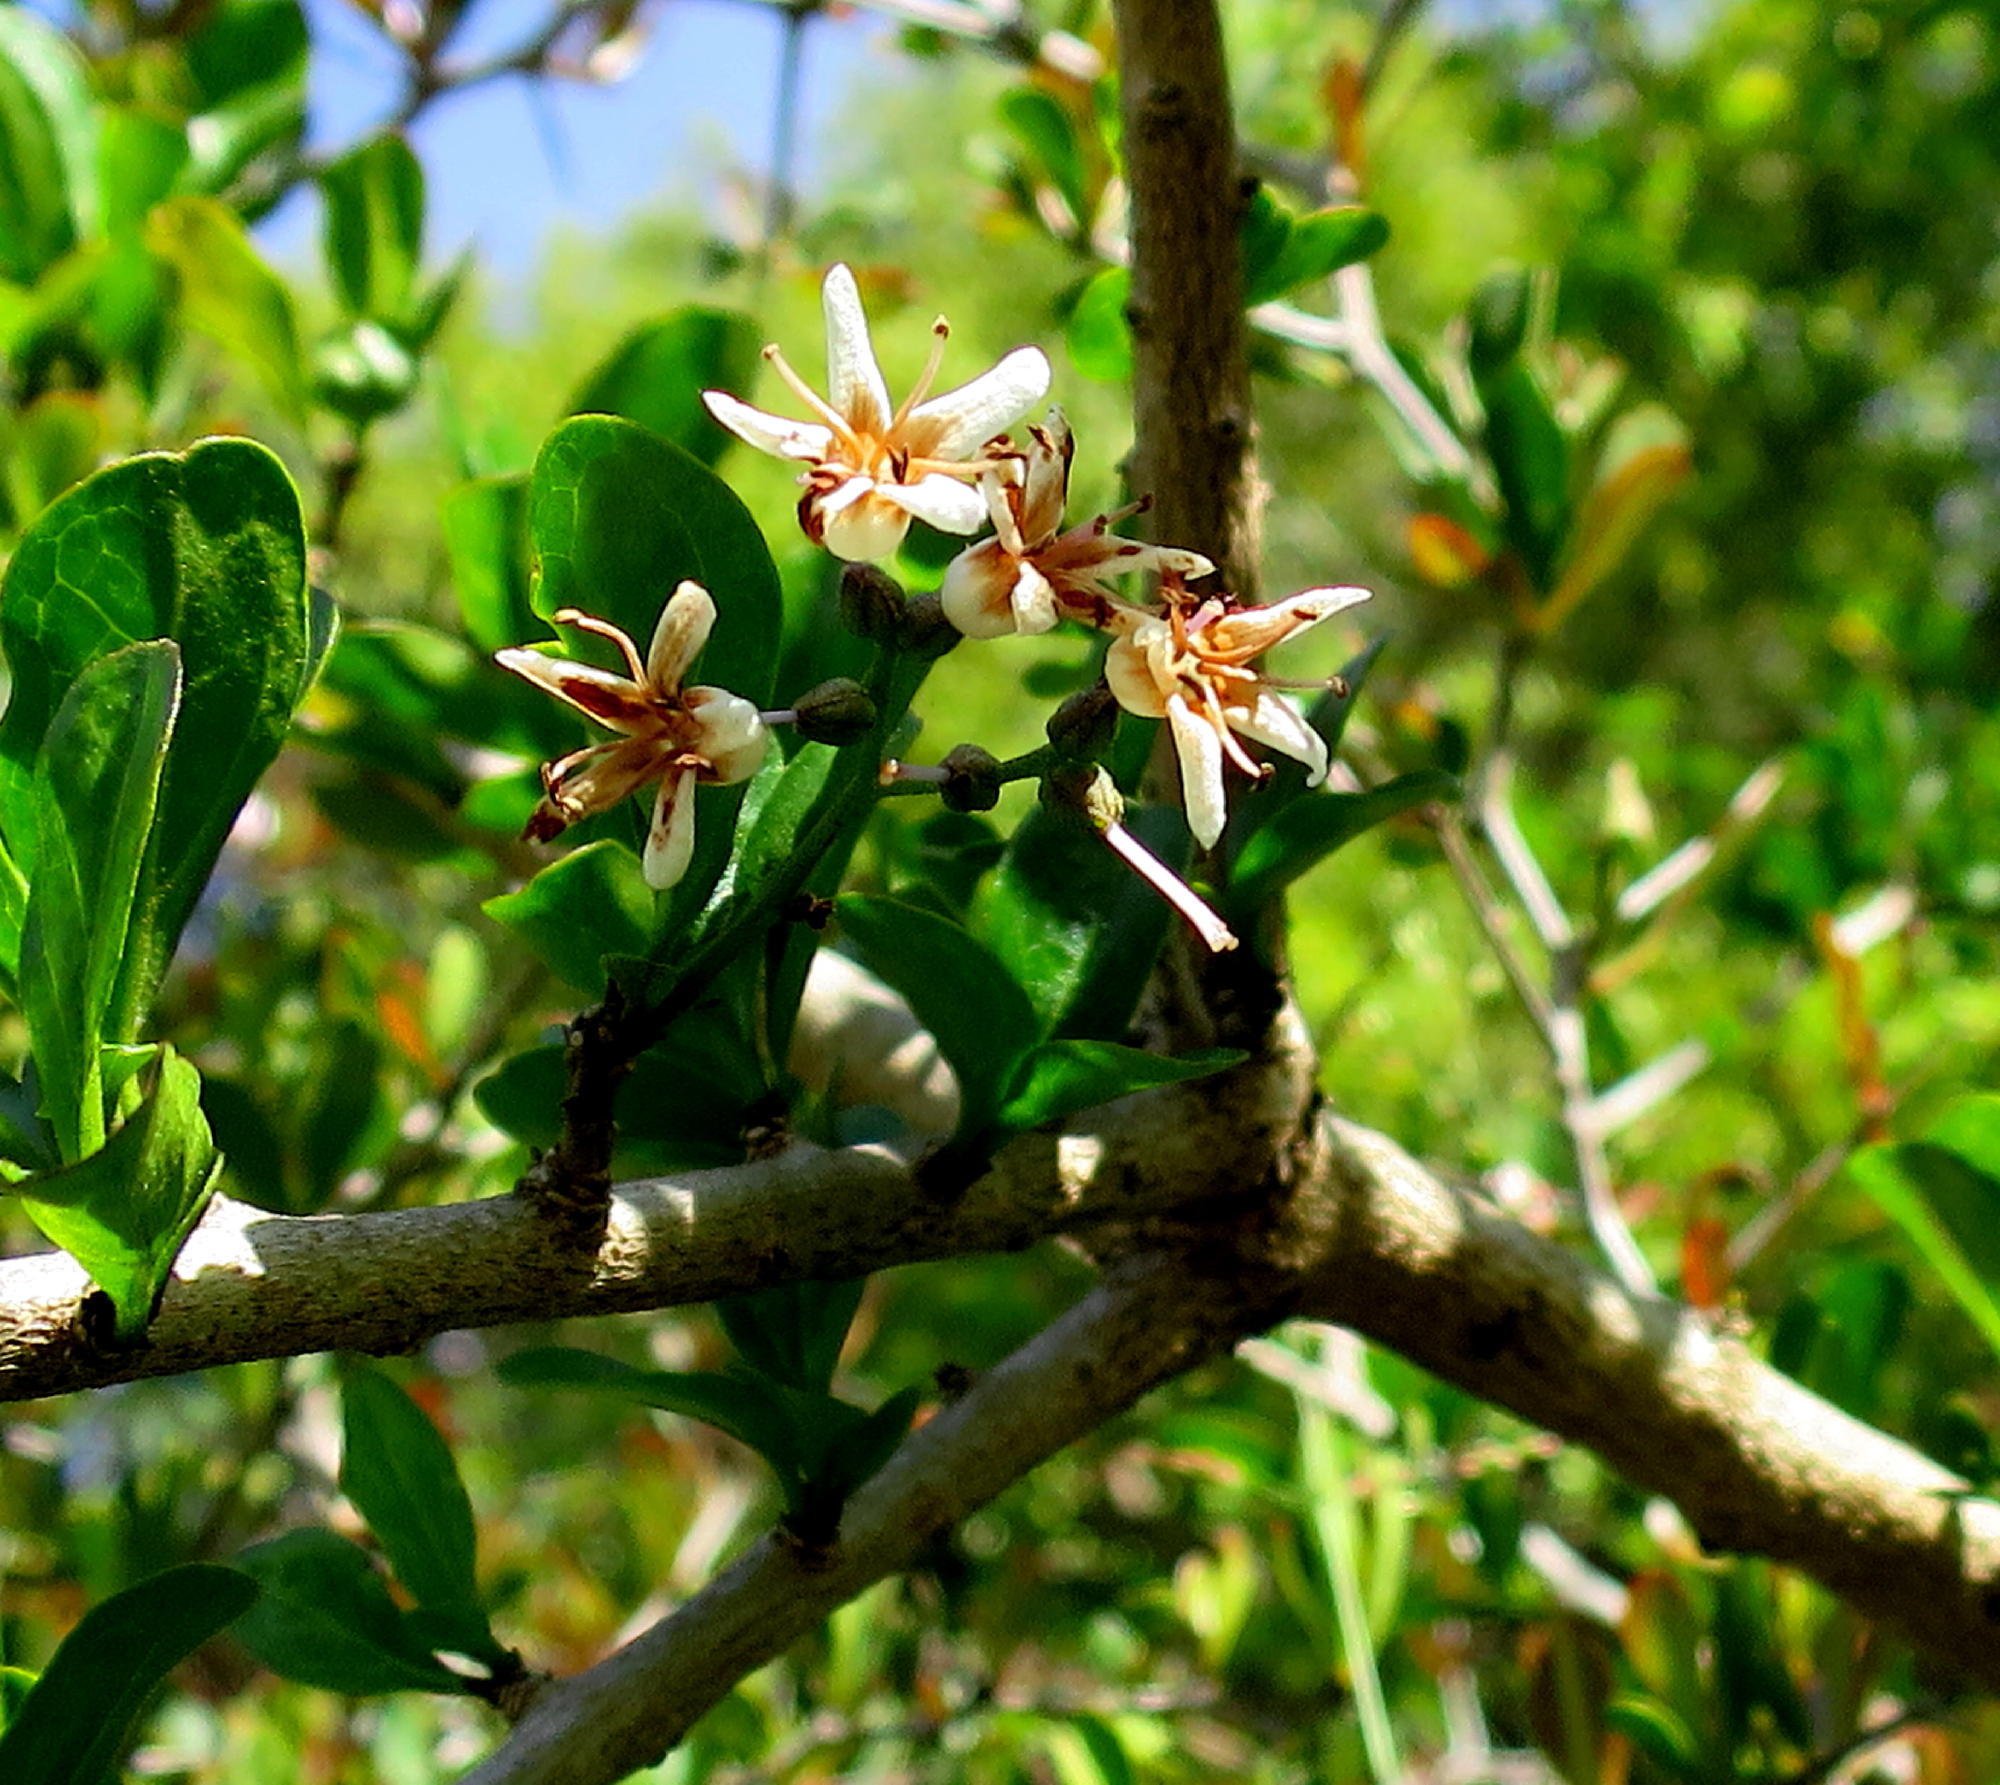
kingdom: Plantae
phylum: Tracheophyta
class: Magnoliopsida
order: Boraginales
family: Ehretiaceae
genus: Ehretia
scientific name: Ehretia rigida
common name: Cape lilac
